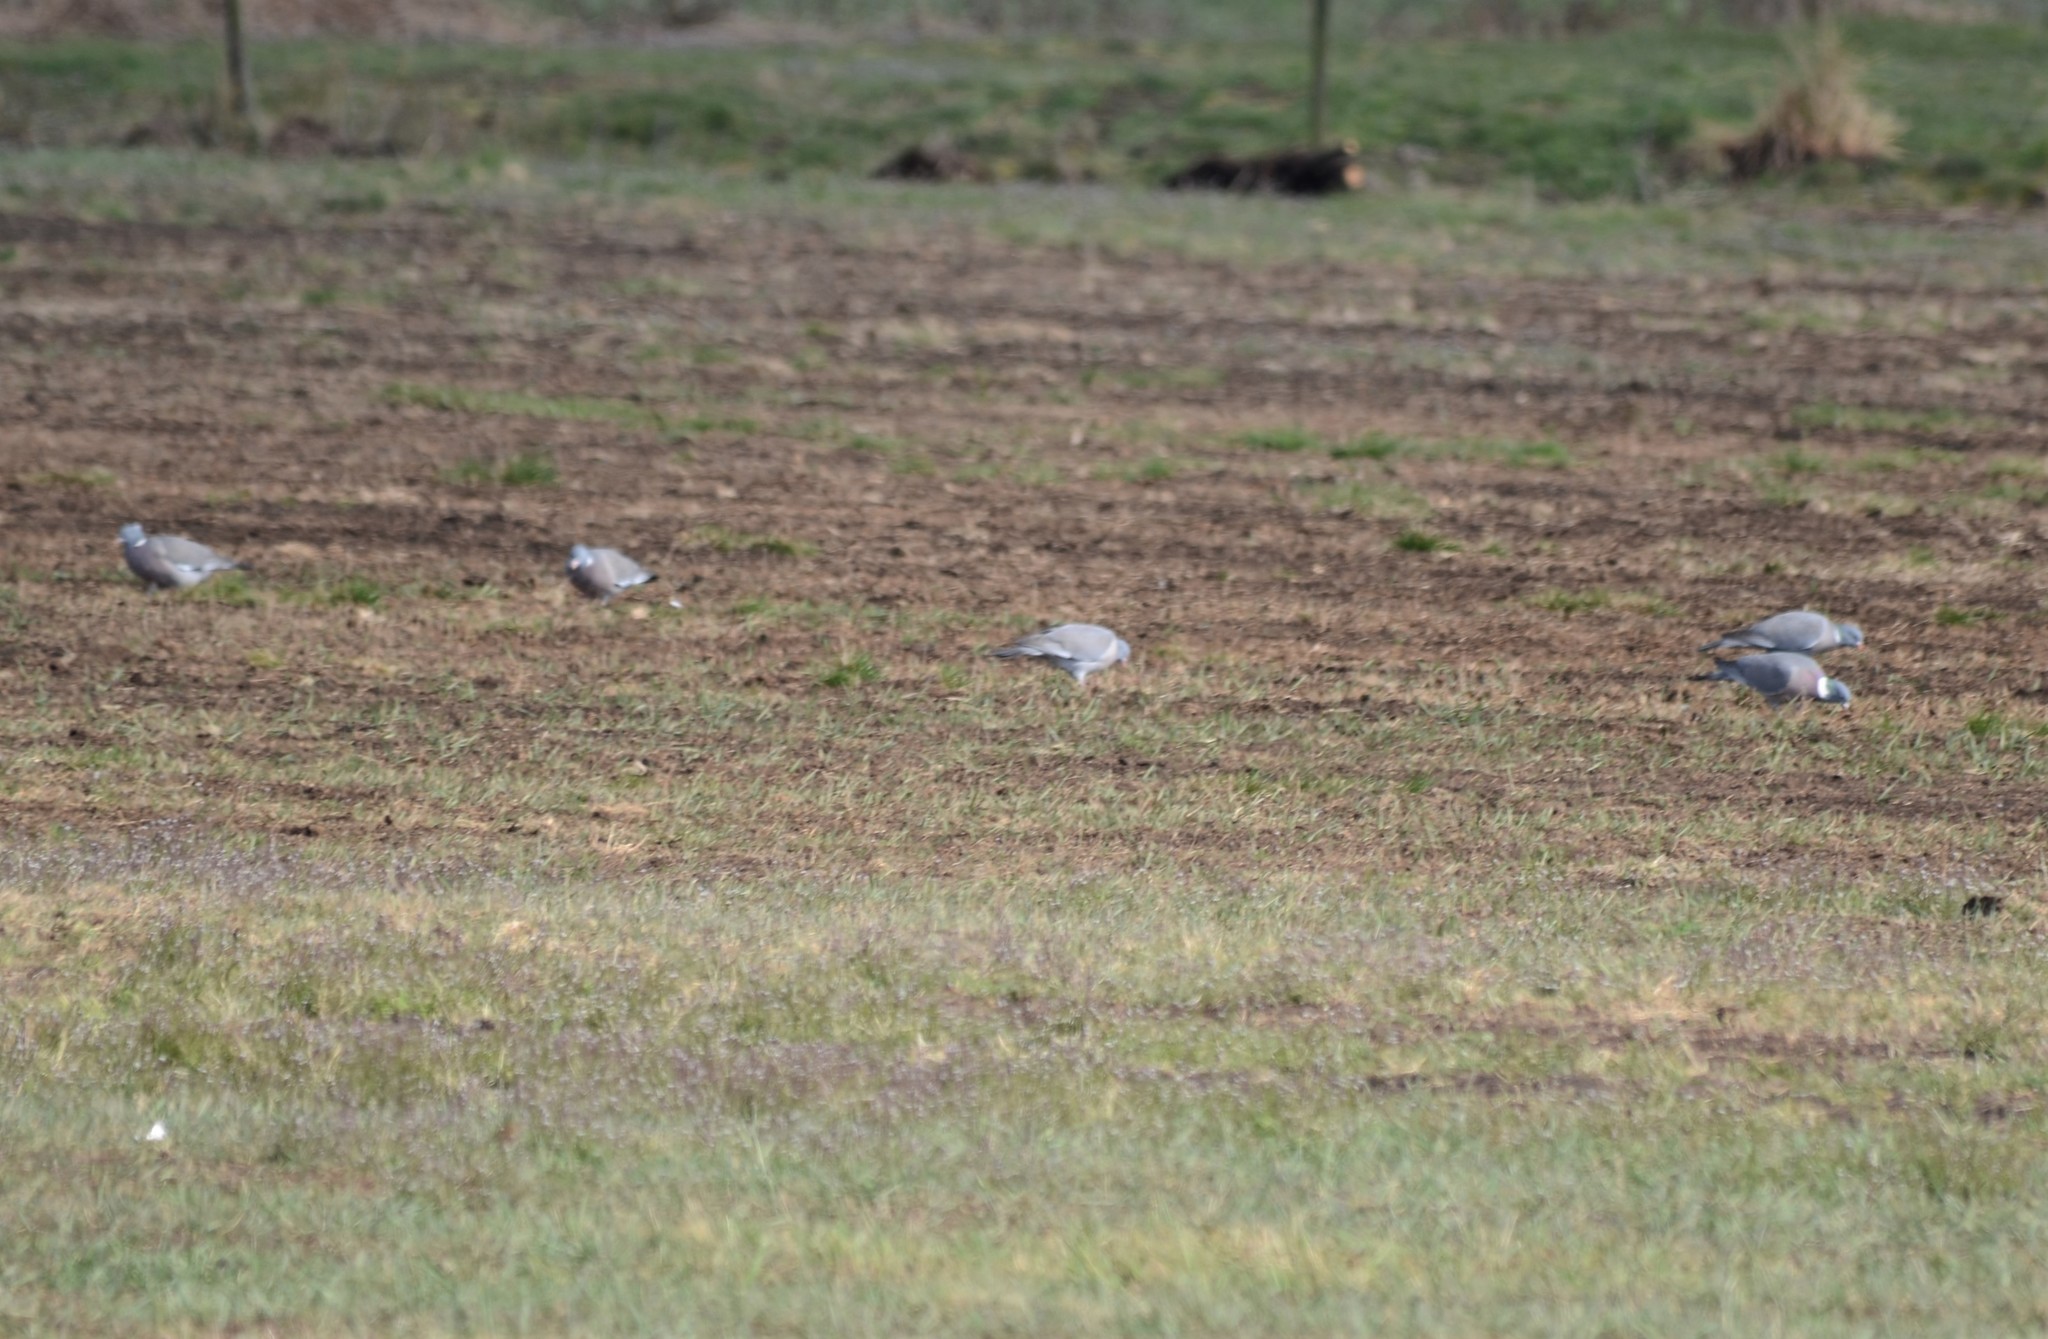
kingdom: Animalia
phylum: Chordata
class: Aves
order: Columbiformes
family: Columbidae
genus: Columba
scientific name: Columba palumbus
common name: Common wood pigeon
